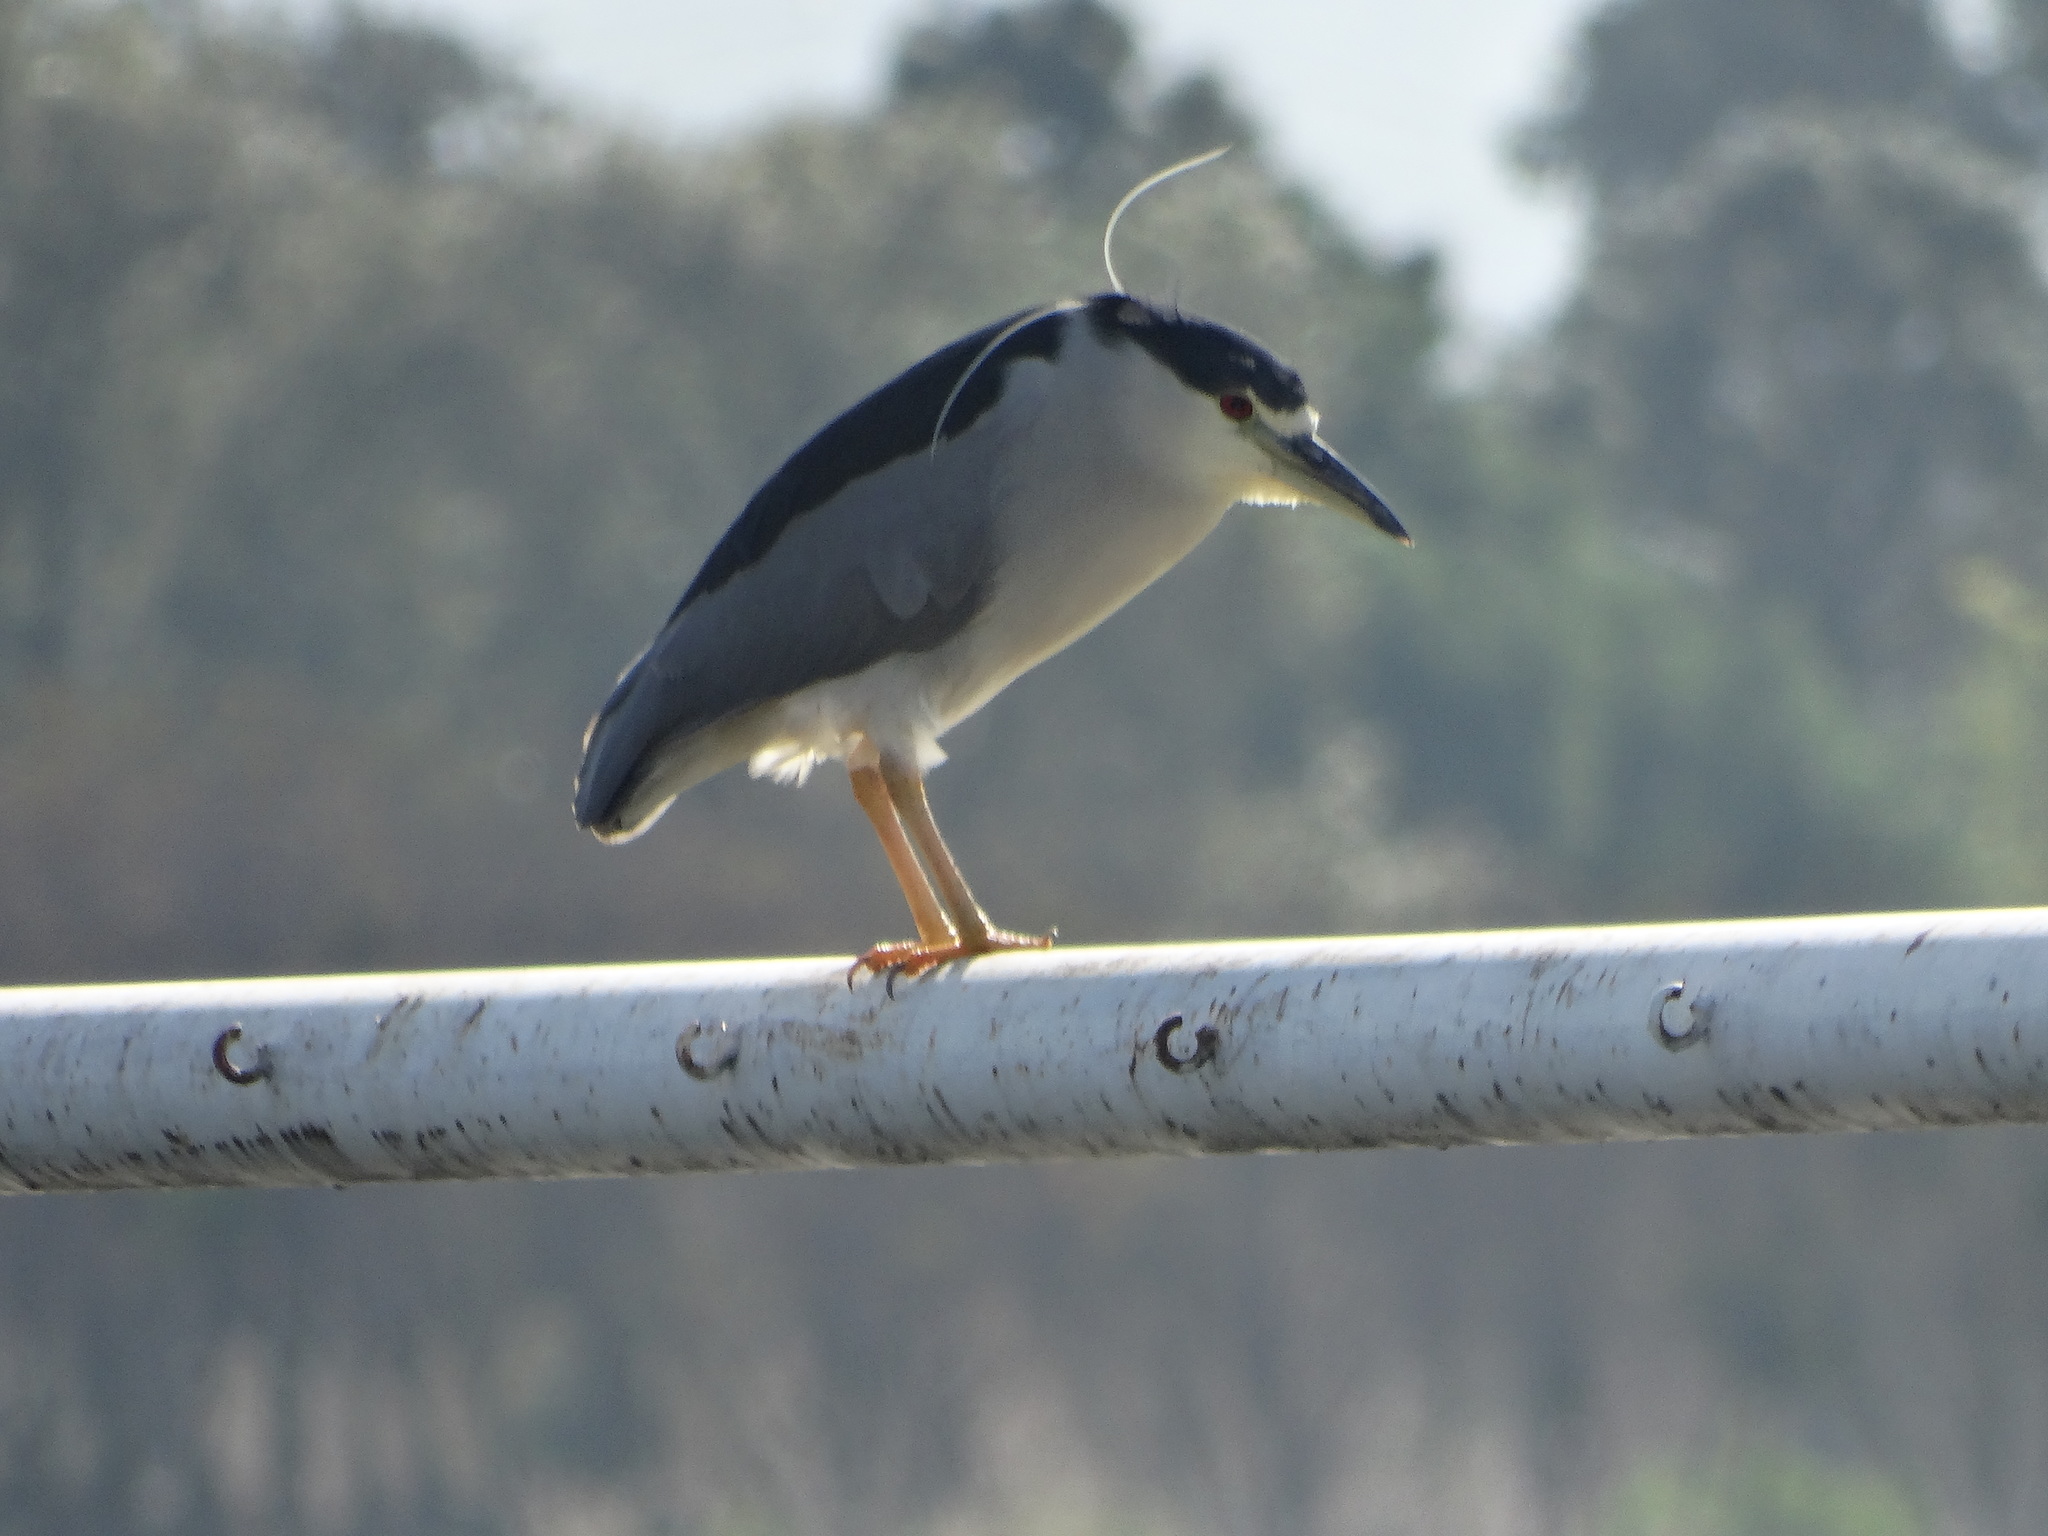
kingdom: Animalia
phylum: Chordata
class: Aves
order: Pelecaniformes
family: Ardeidae
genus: Nycticorax
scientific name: Nycticorax nycticorax
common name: Black-crowned night heron
